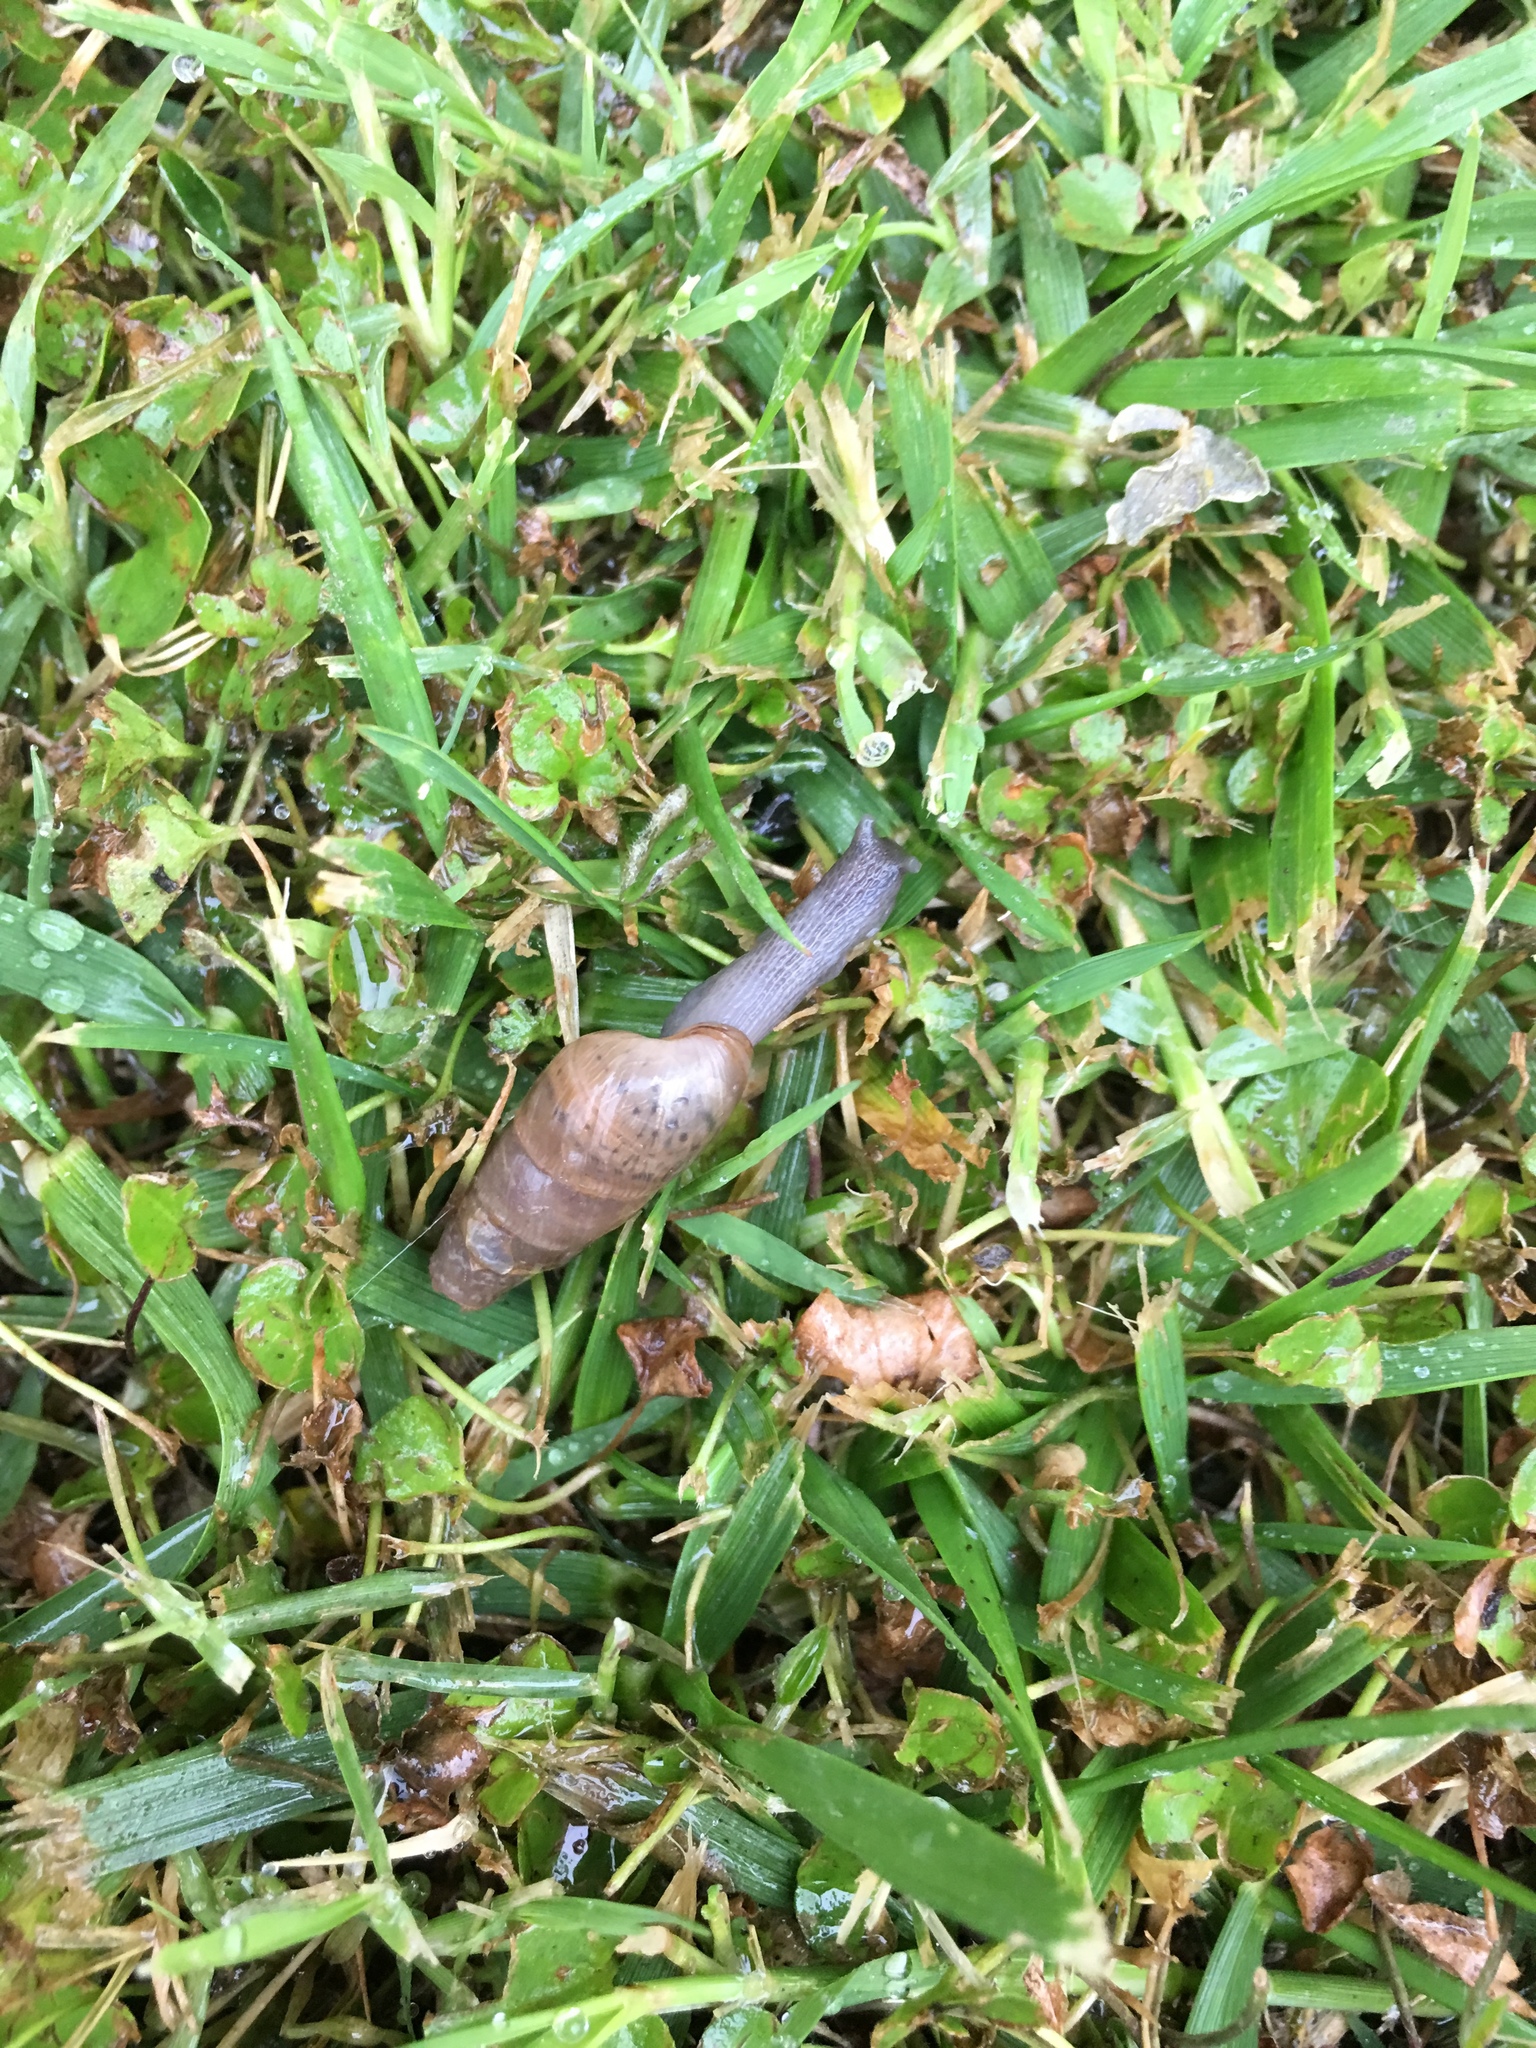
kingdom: Animalia
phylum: Mollusca
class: Gastropoda
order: Stylommatophora
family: Achatinidae
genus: Rumina
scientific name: Rumina decollata
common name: Decollate snail
